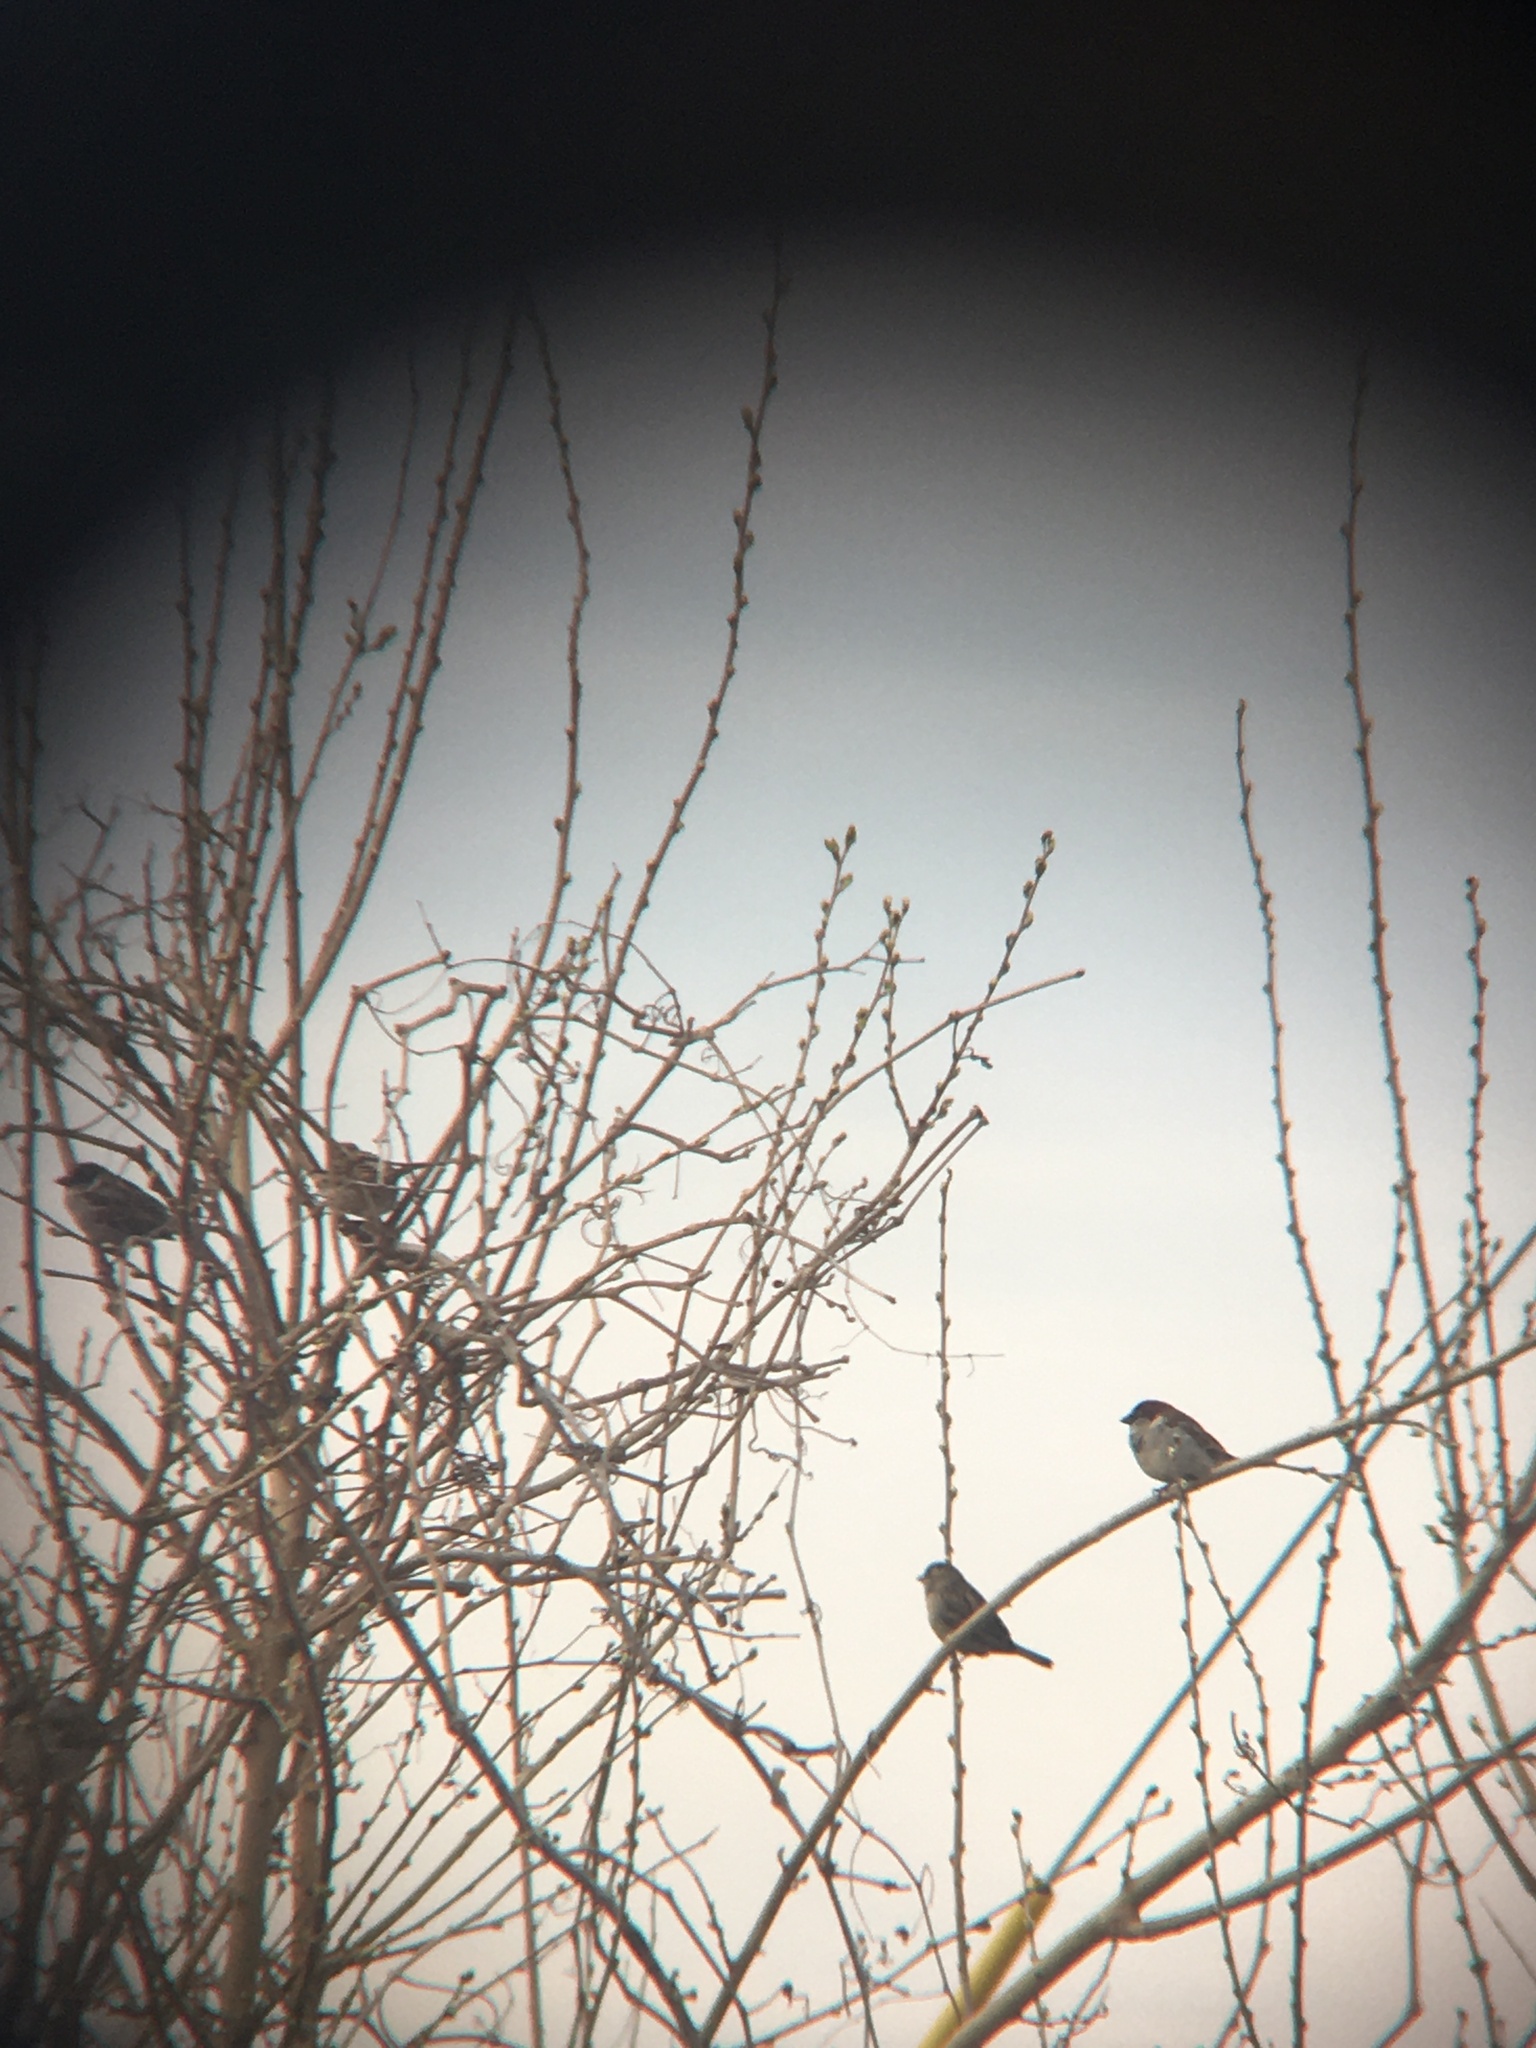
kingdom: Animalia
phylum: Chordata
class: Aves
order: Passeriformes
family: Passeridae
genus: Passer
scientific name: Passer domesticus
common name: House sparrow
